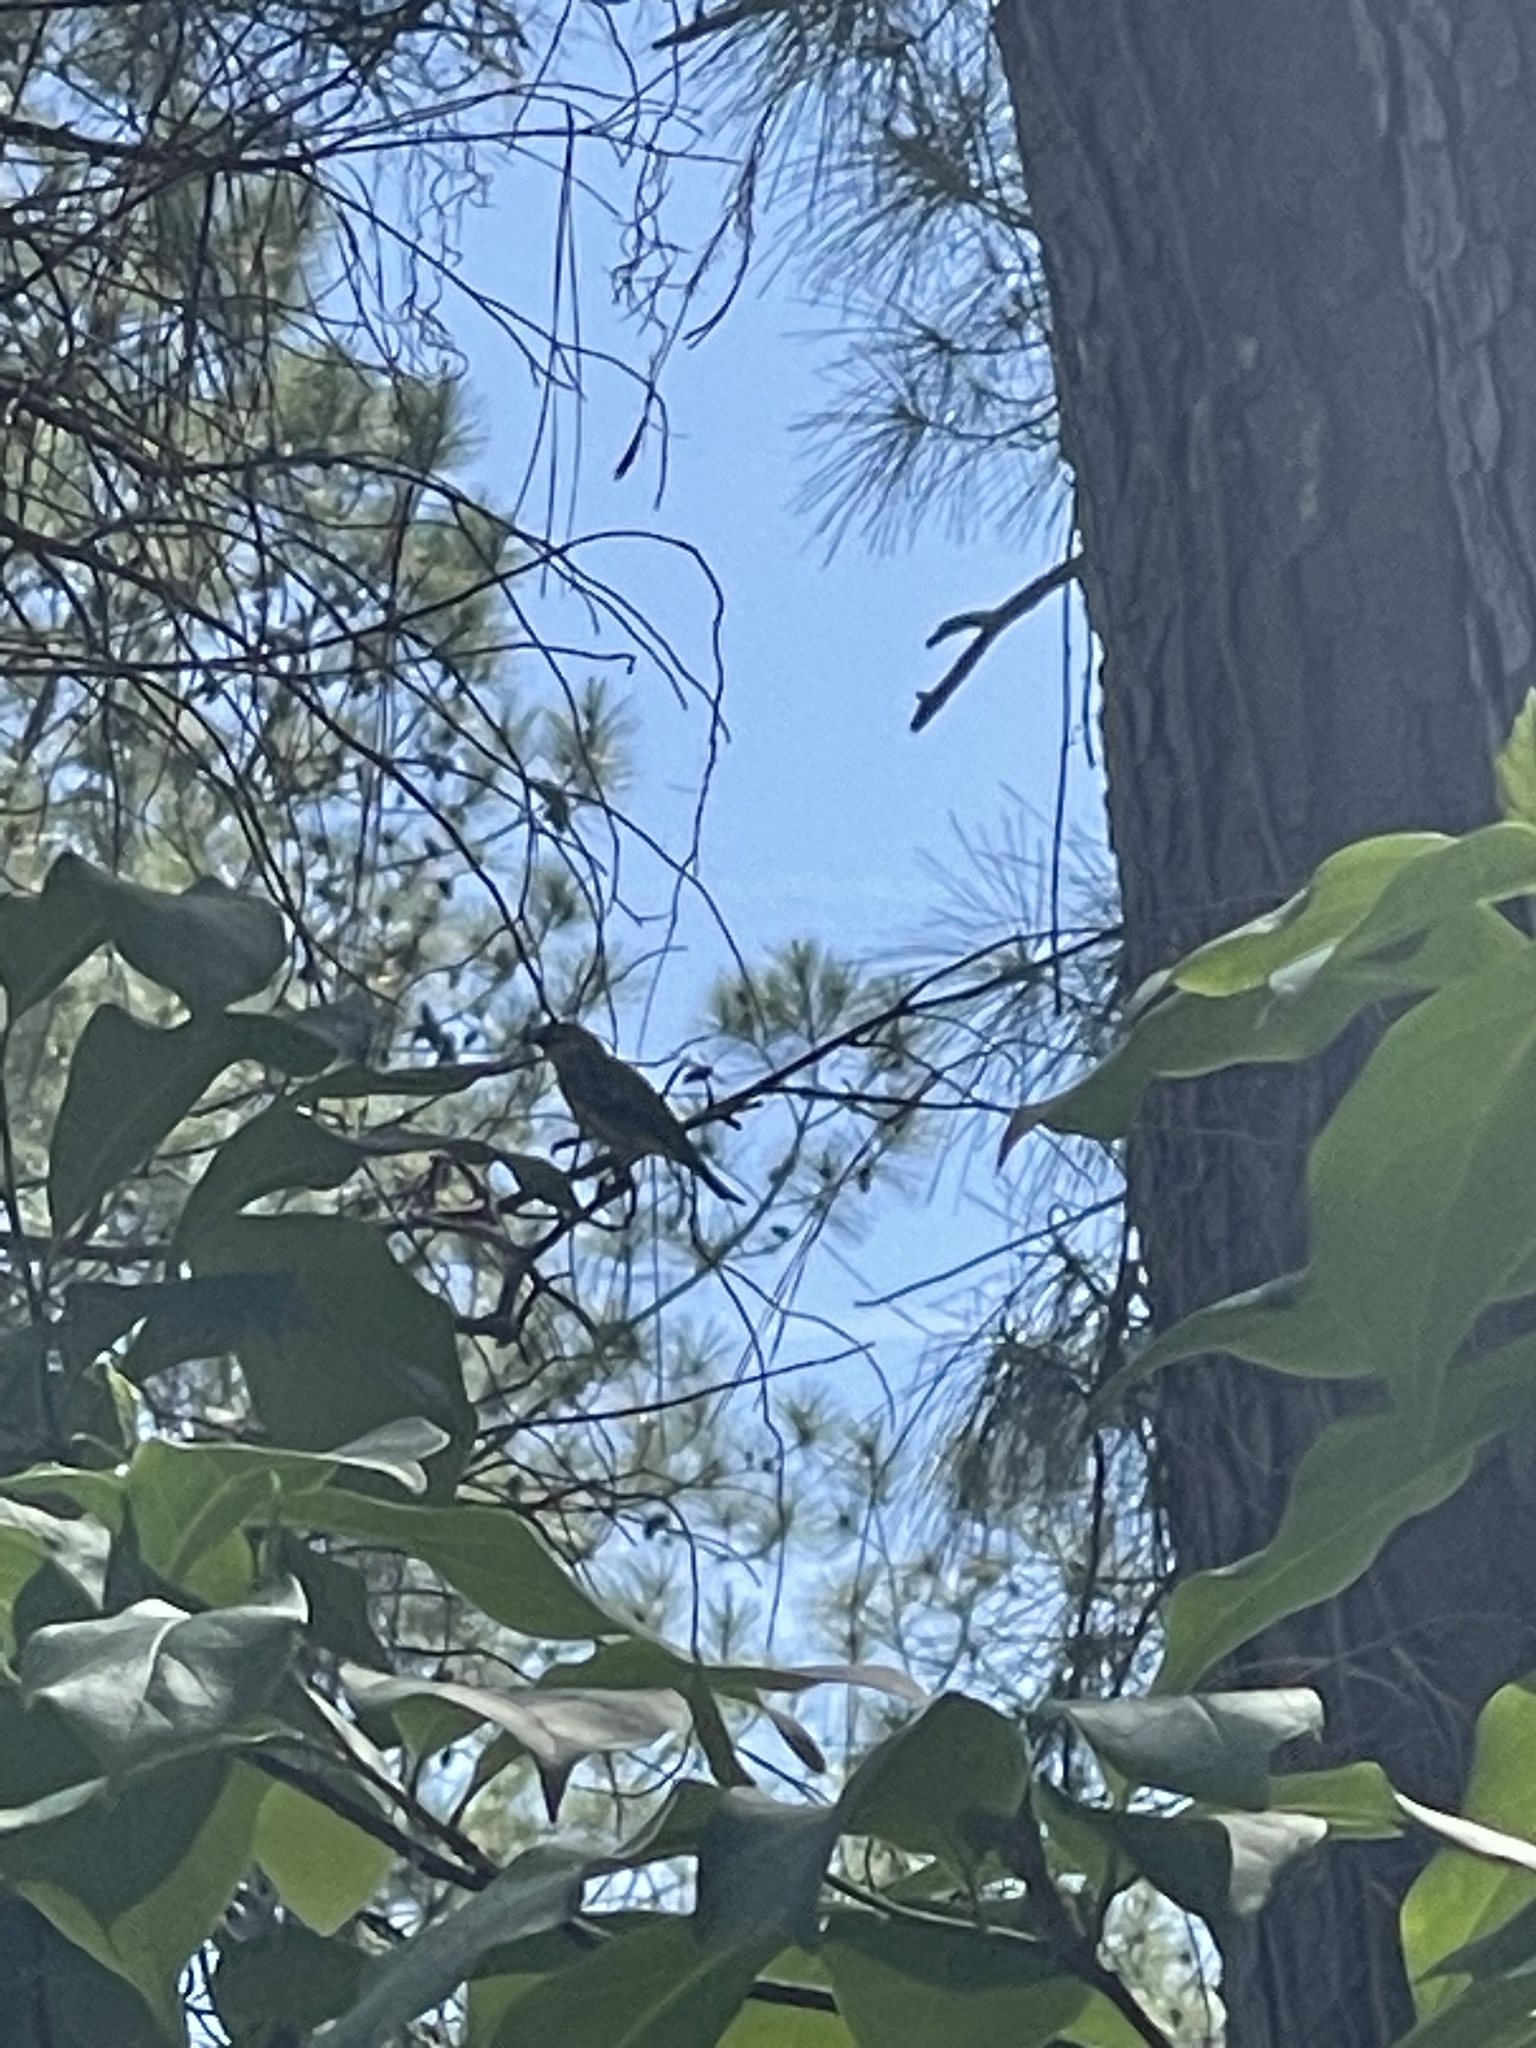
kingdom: Animalia
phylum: Chordata
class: Aves
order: Passeriformes
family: Paridae
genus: Baeolophus
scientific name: Baeolophus bicolor
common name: Tufted titmouse
